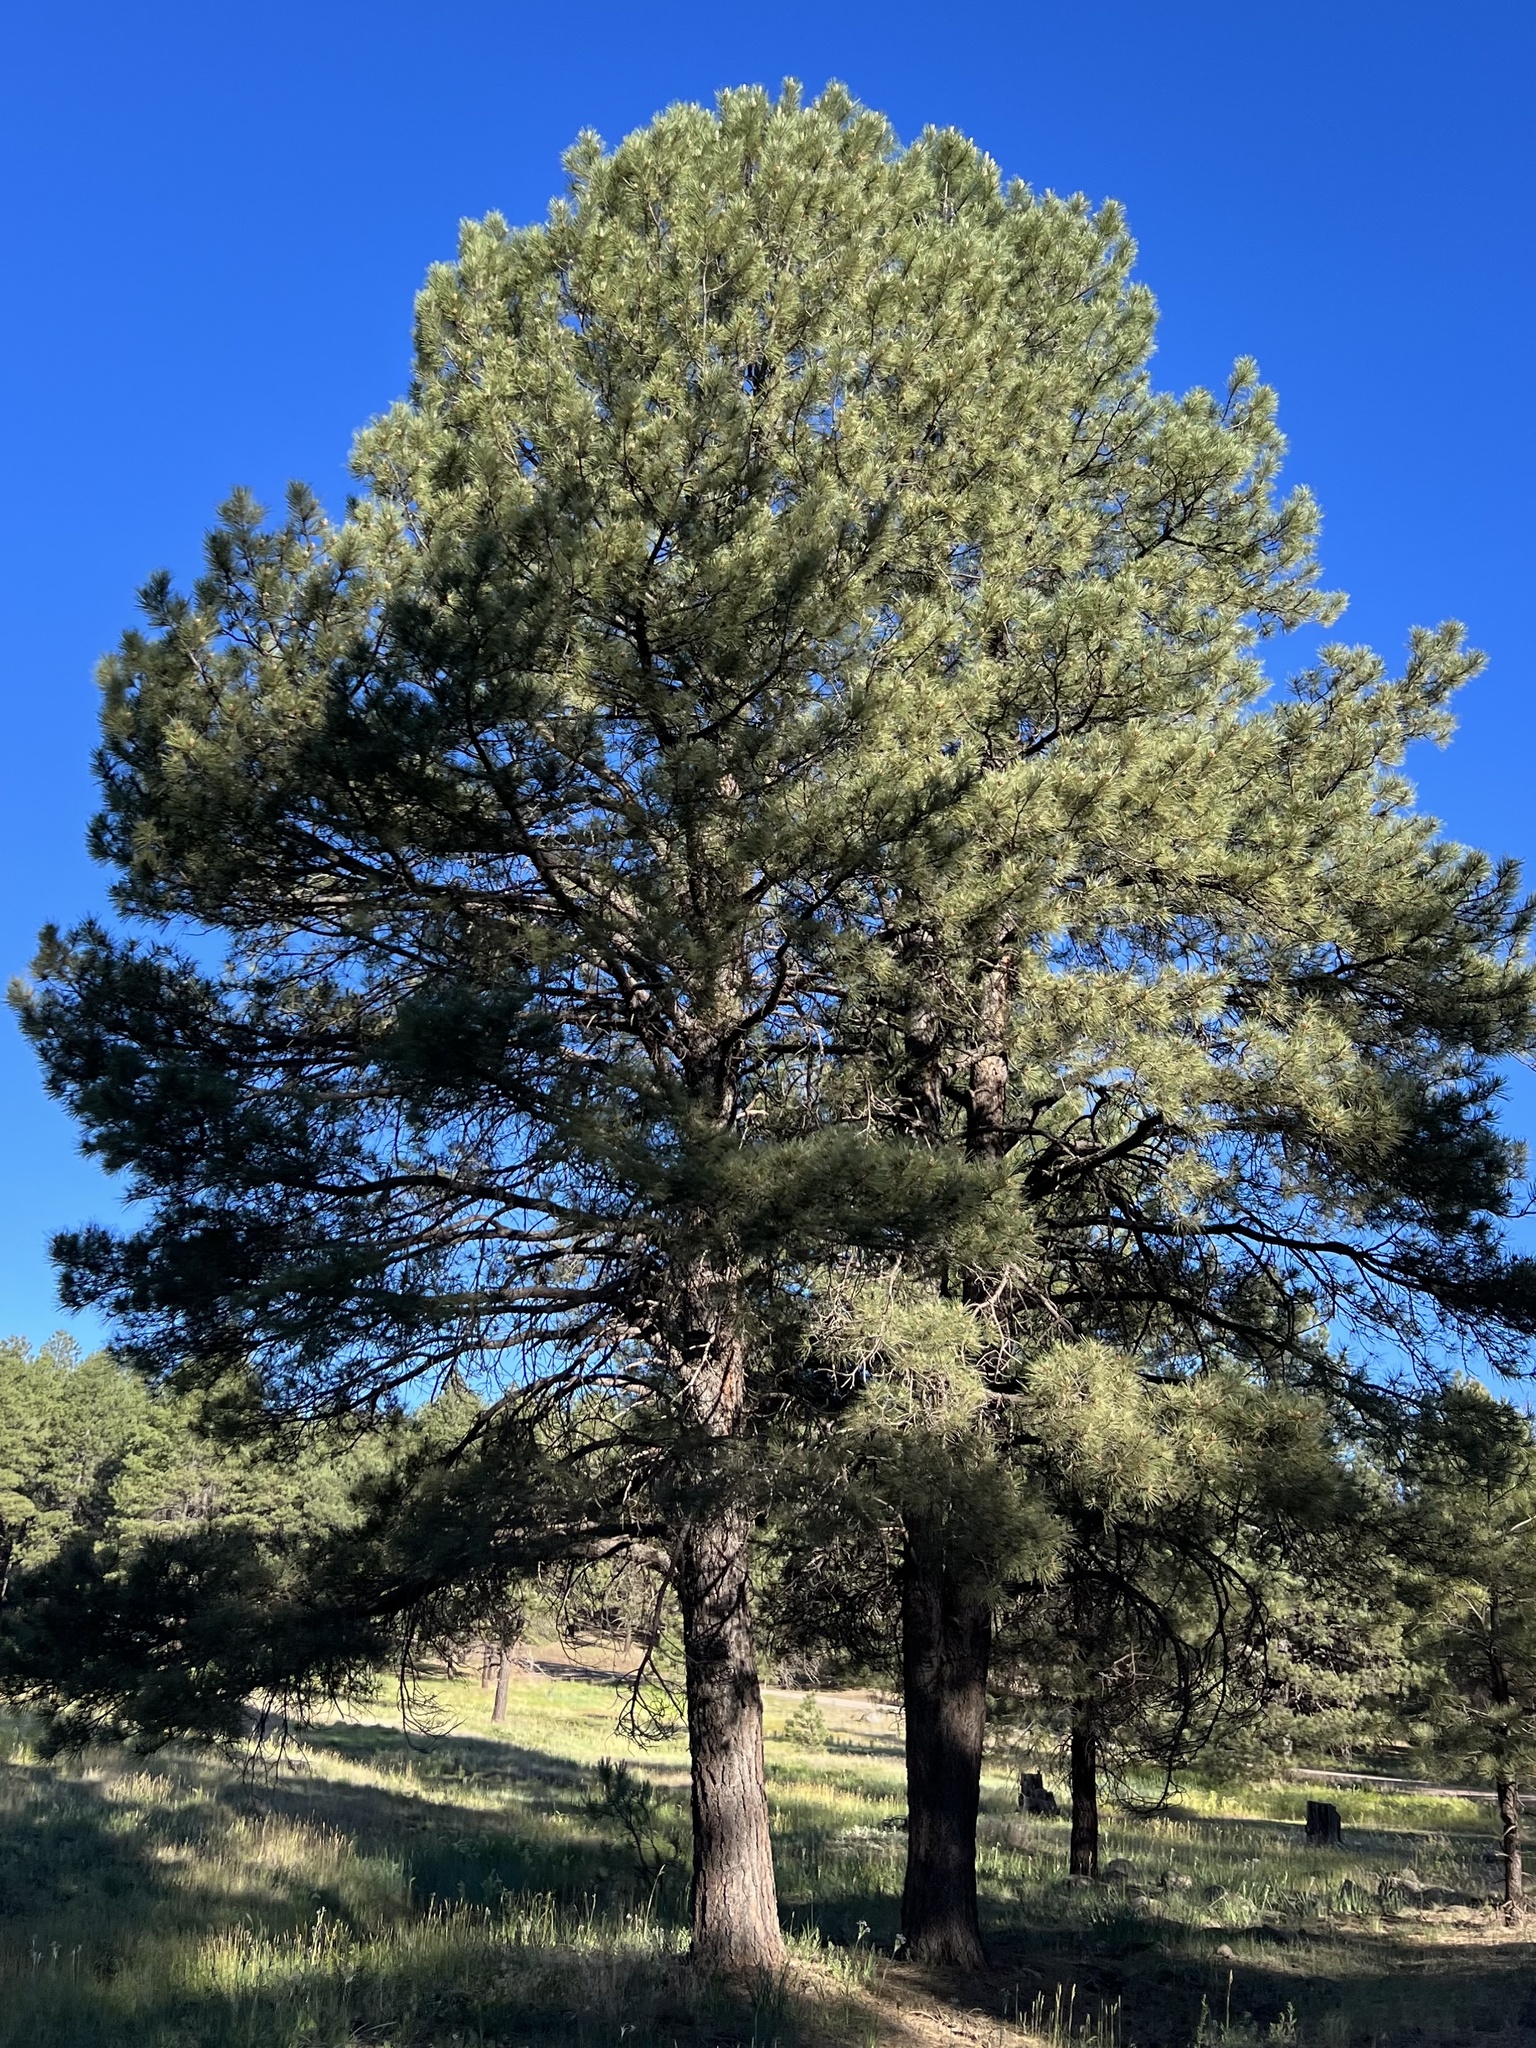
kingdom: Plantae
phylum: Tracheophyta
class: Pinopsida
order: Pinales
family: Pinaceae
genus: Pinus
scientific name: Pinus ponderosa
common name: Western yellow-pine
